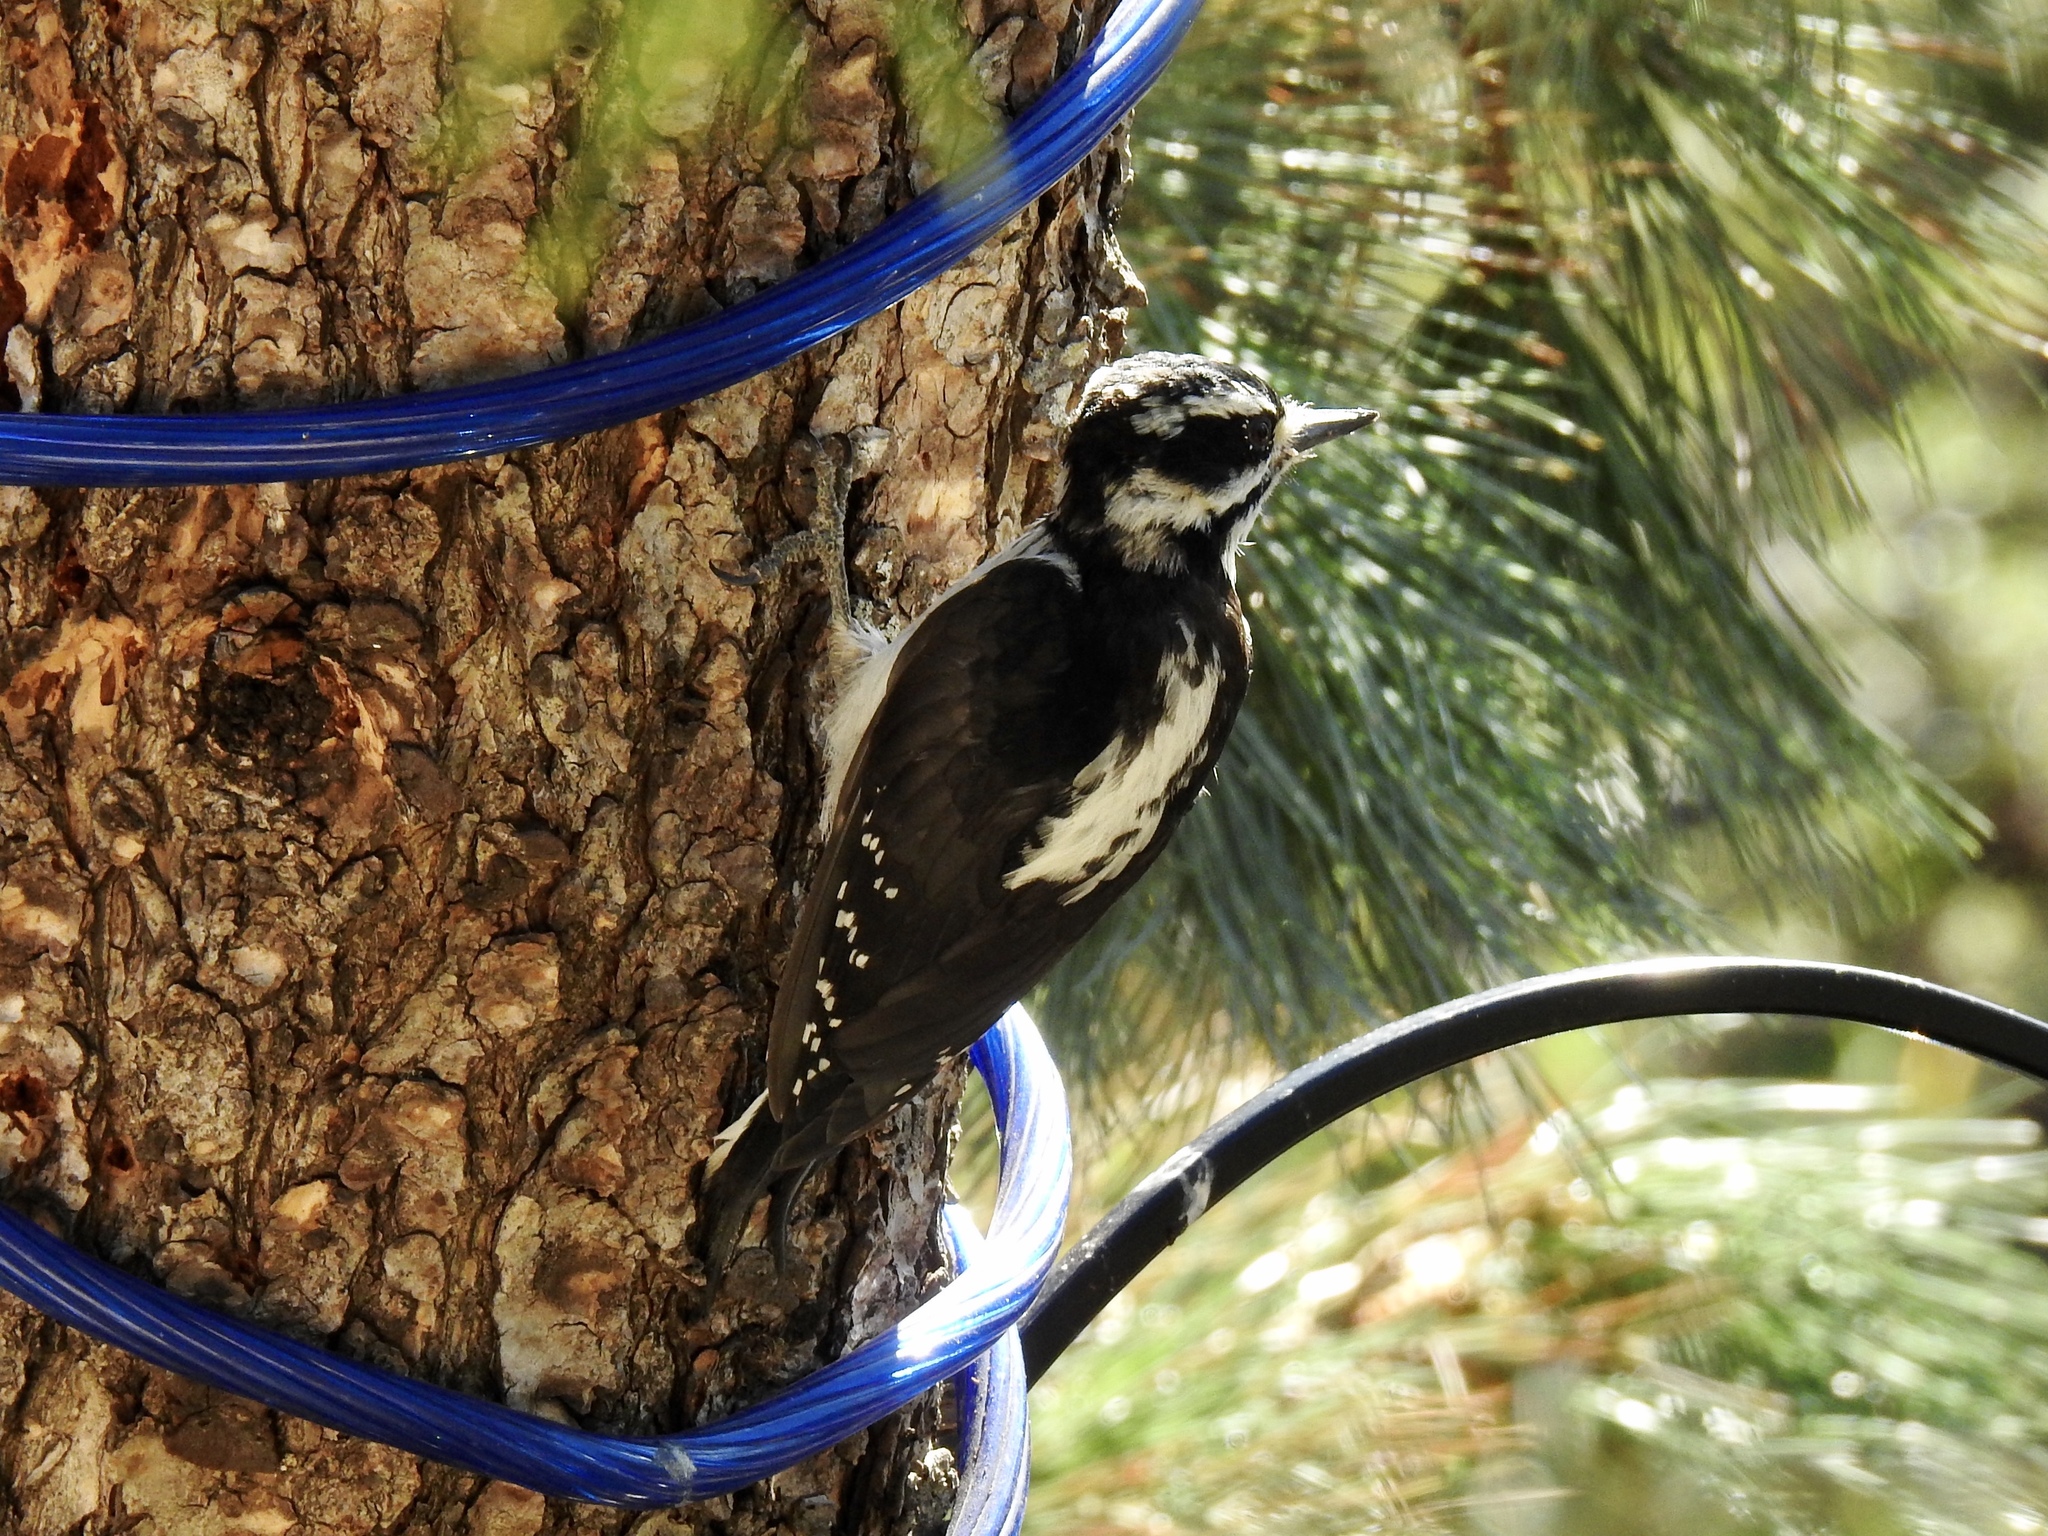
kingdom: Animalia
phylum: Chordata
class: Aves
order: Piciformes
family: Picidae
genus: Leuconotopicus
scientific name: Leuconotopicus villosus
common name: Hairy woodpecker
